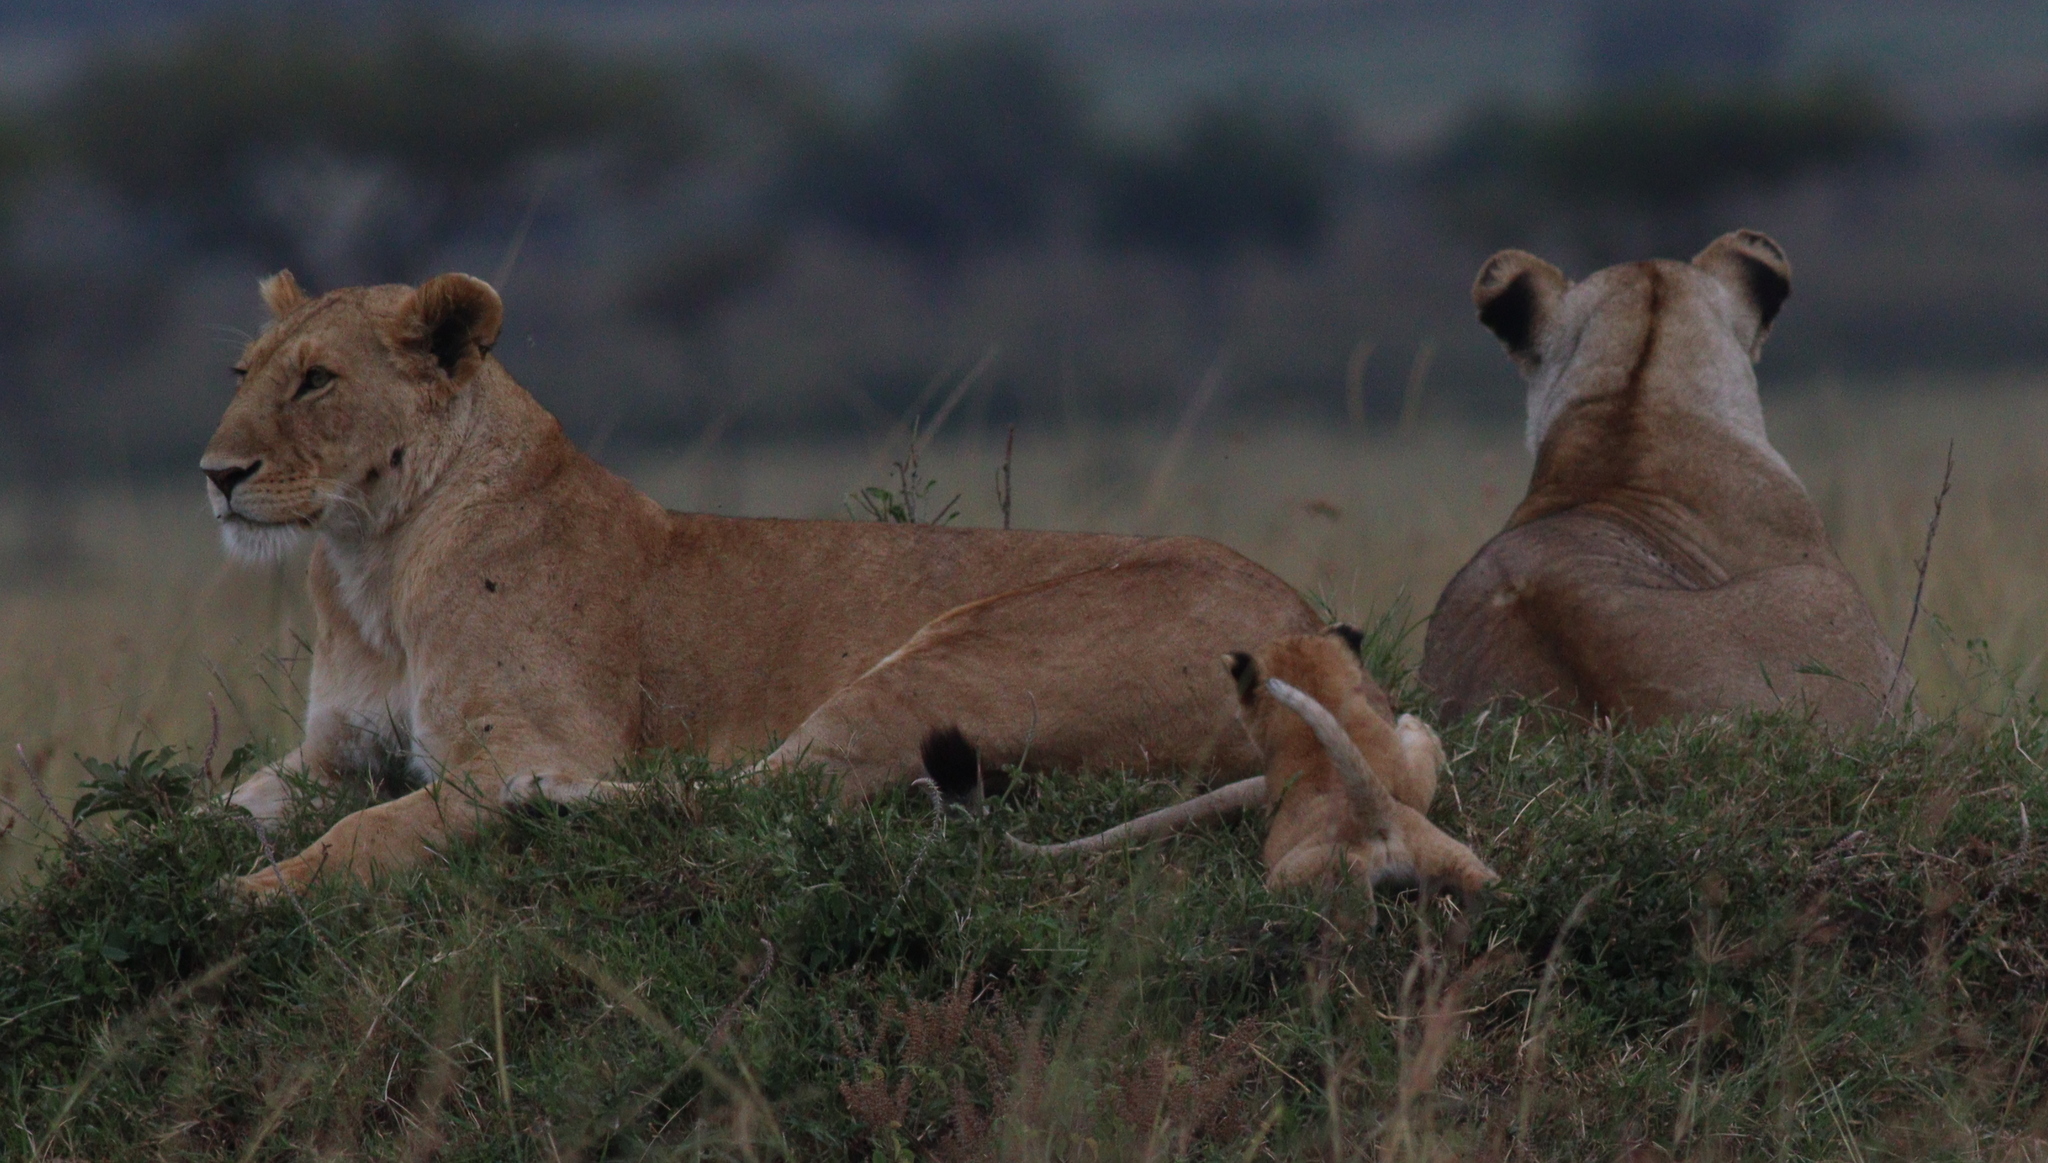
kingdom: Animalia
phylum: Chordata
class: Mammalia
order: Carnivora
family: Felidae
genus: Panthera
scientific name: Panthera leo
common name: Lion
